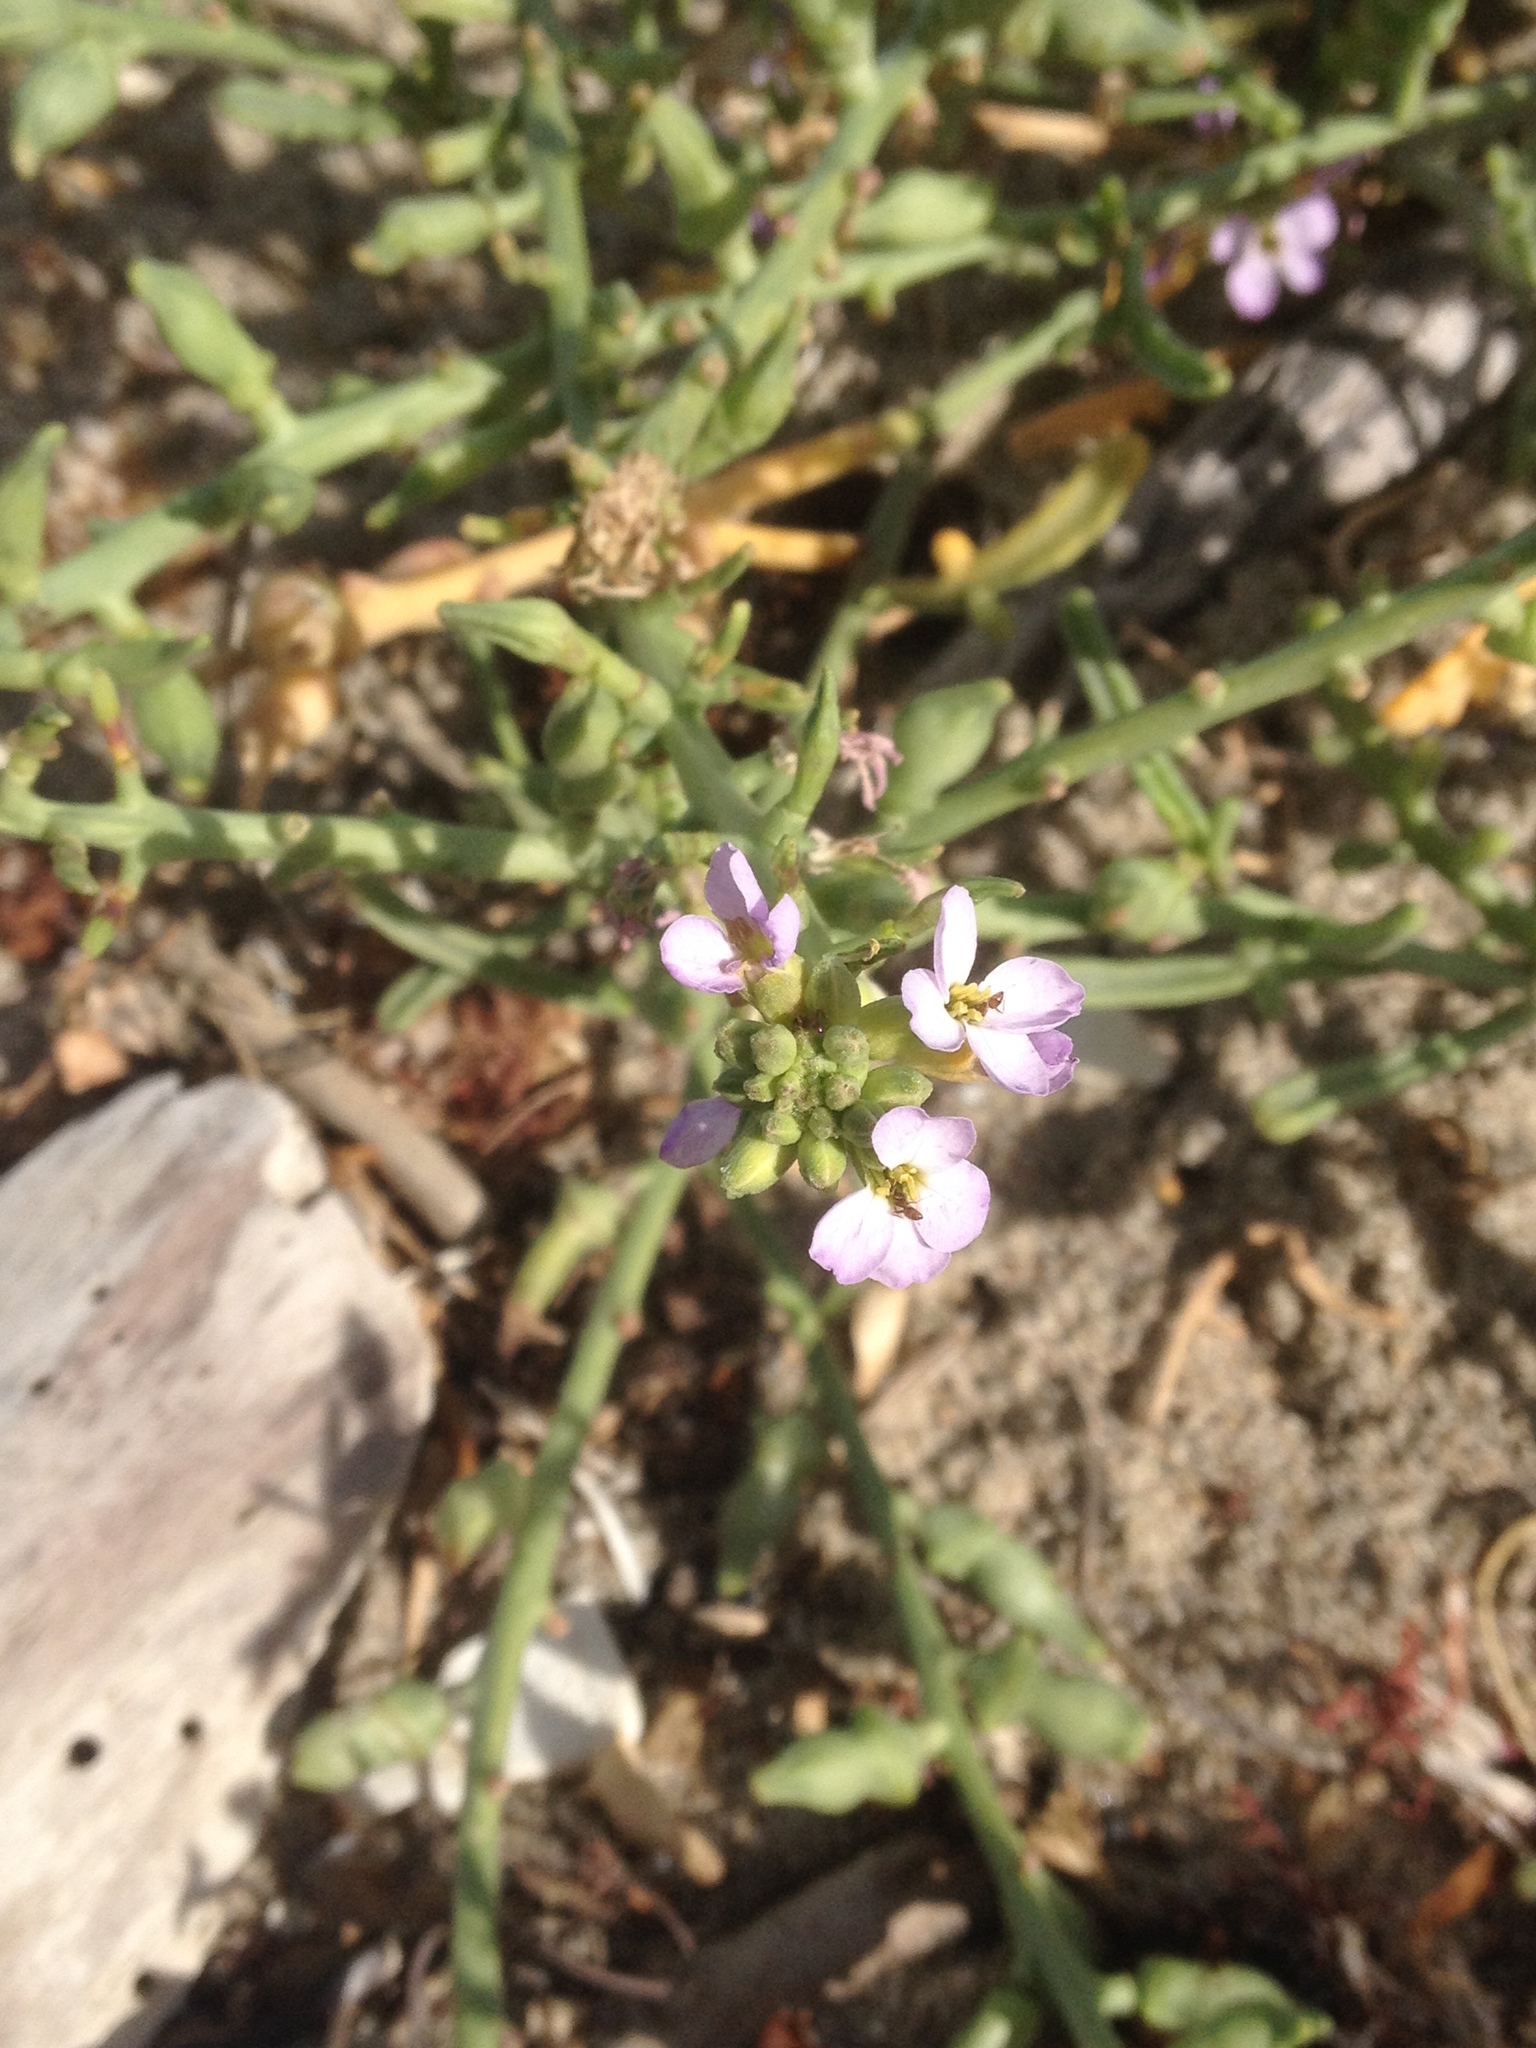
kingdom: Plantae
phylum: Tracheophyta
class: Magnoliopsida
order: Brassicales
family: Brassicaceae
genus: Cakile
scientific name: Cakile maritima
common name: Sea rocket
